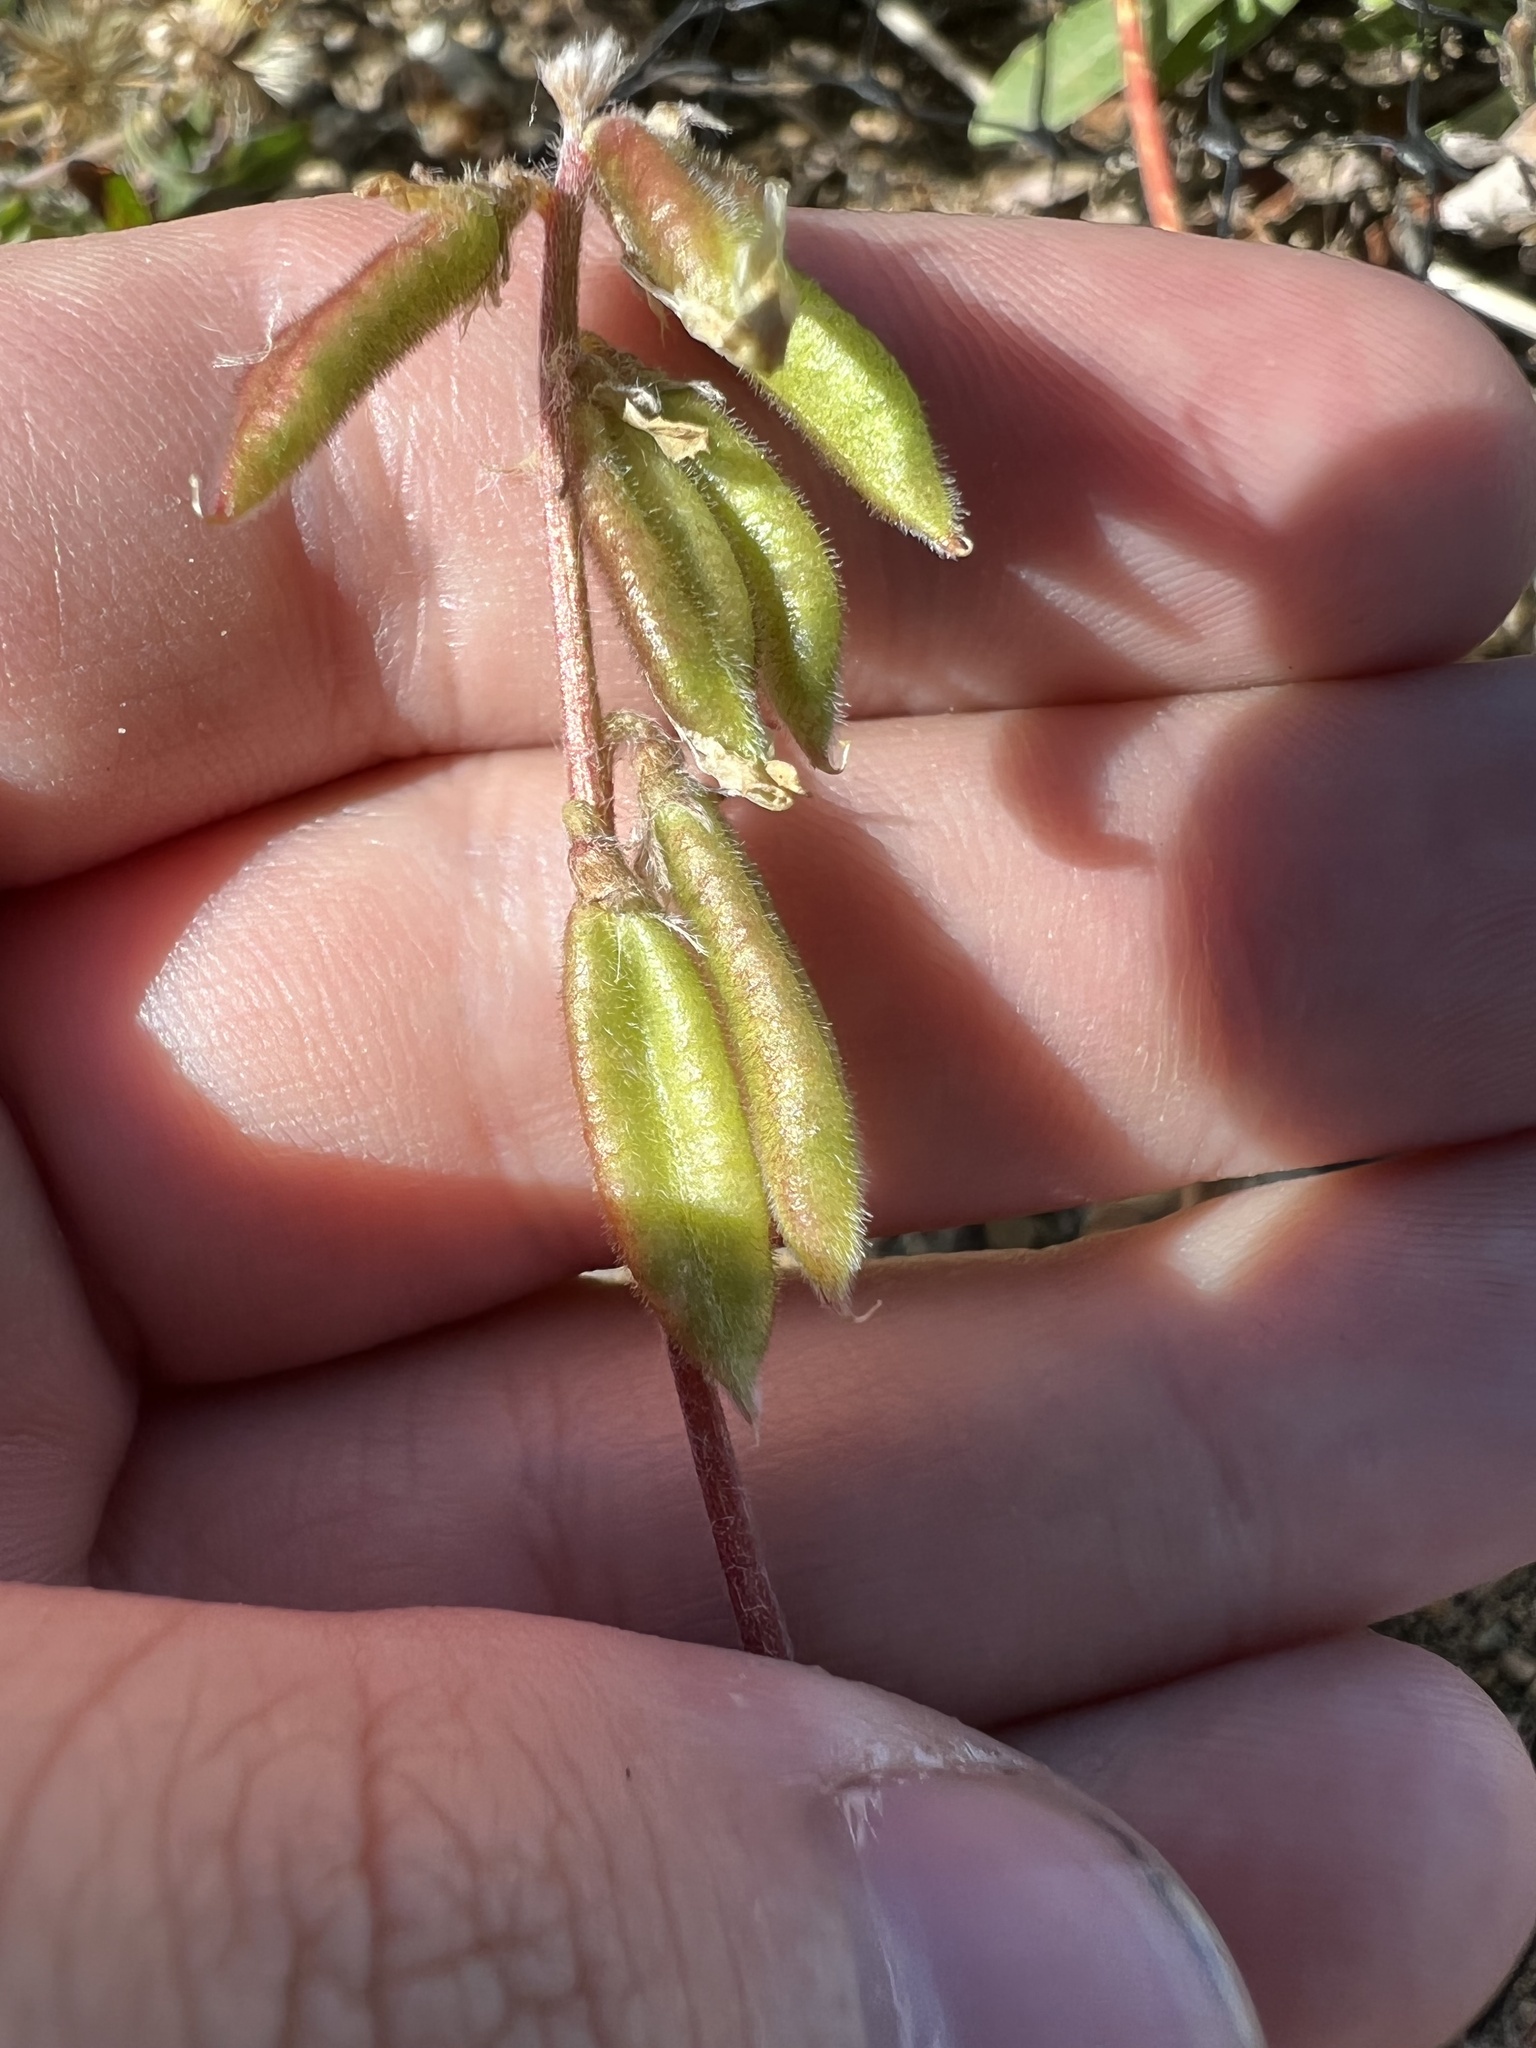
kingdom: Plantae
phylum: Tracheophyta
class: Magnoliopsida
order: Fabales
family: Fabaceae
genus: Oxytropis
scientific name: Oxytropis deflexa
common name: Stemmed oxytrope
